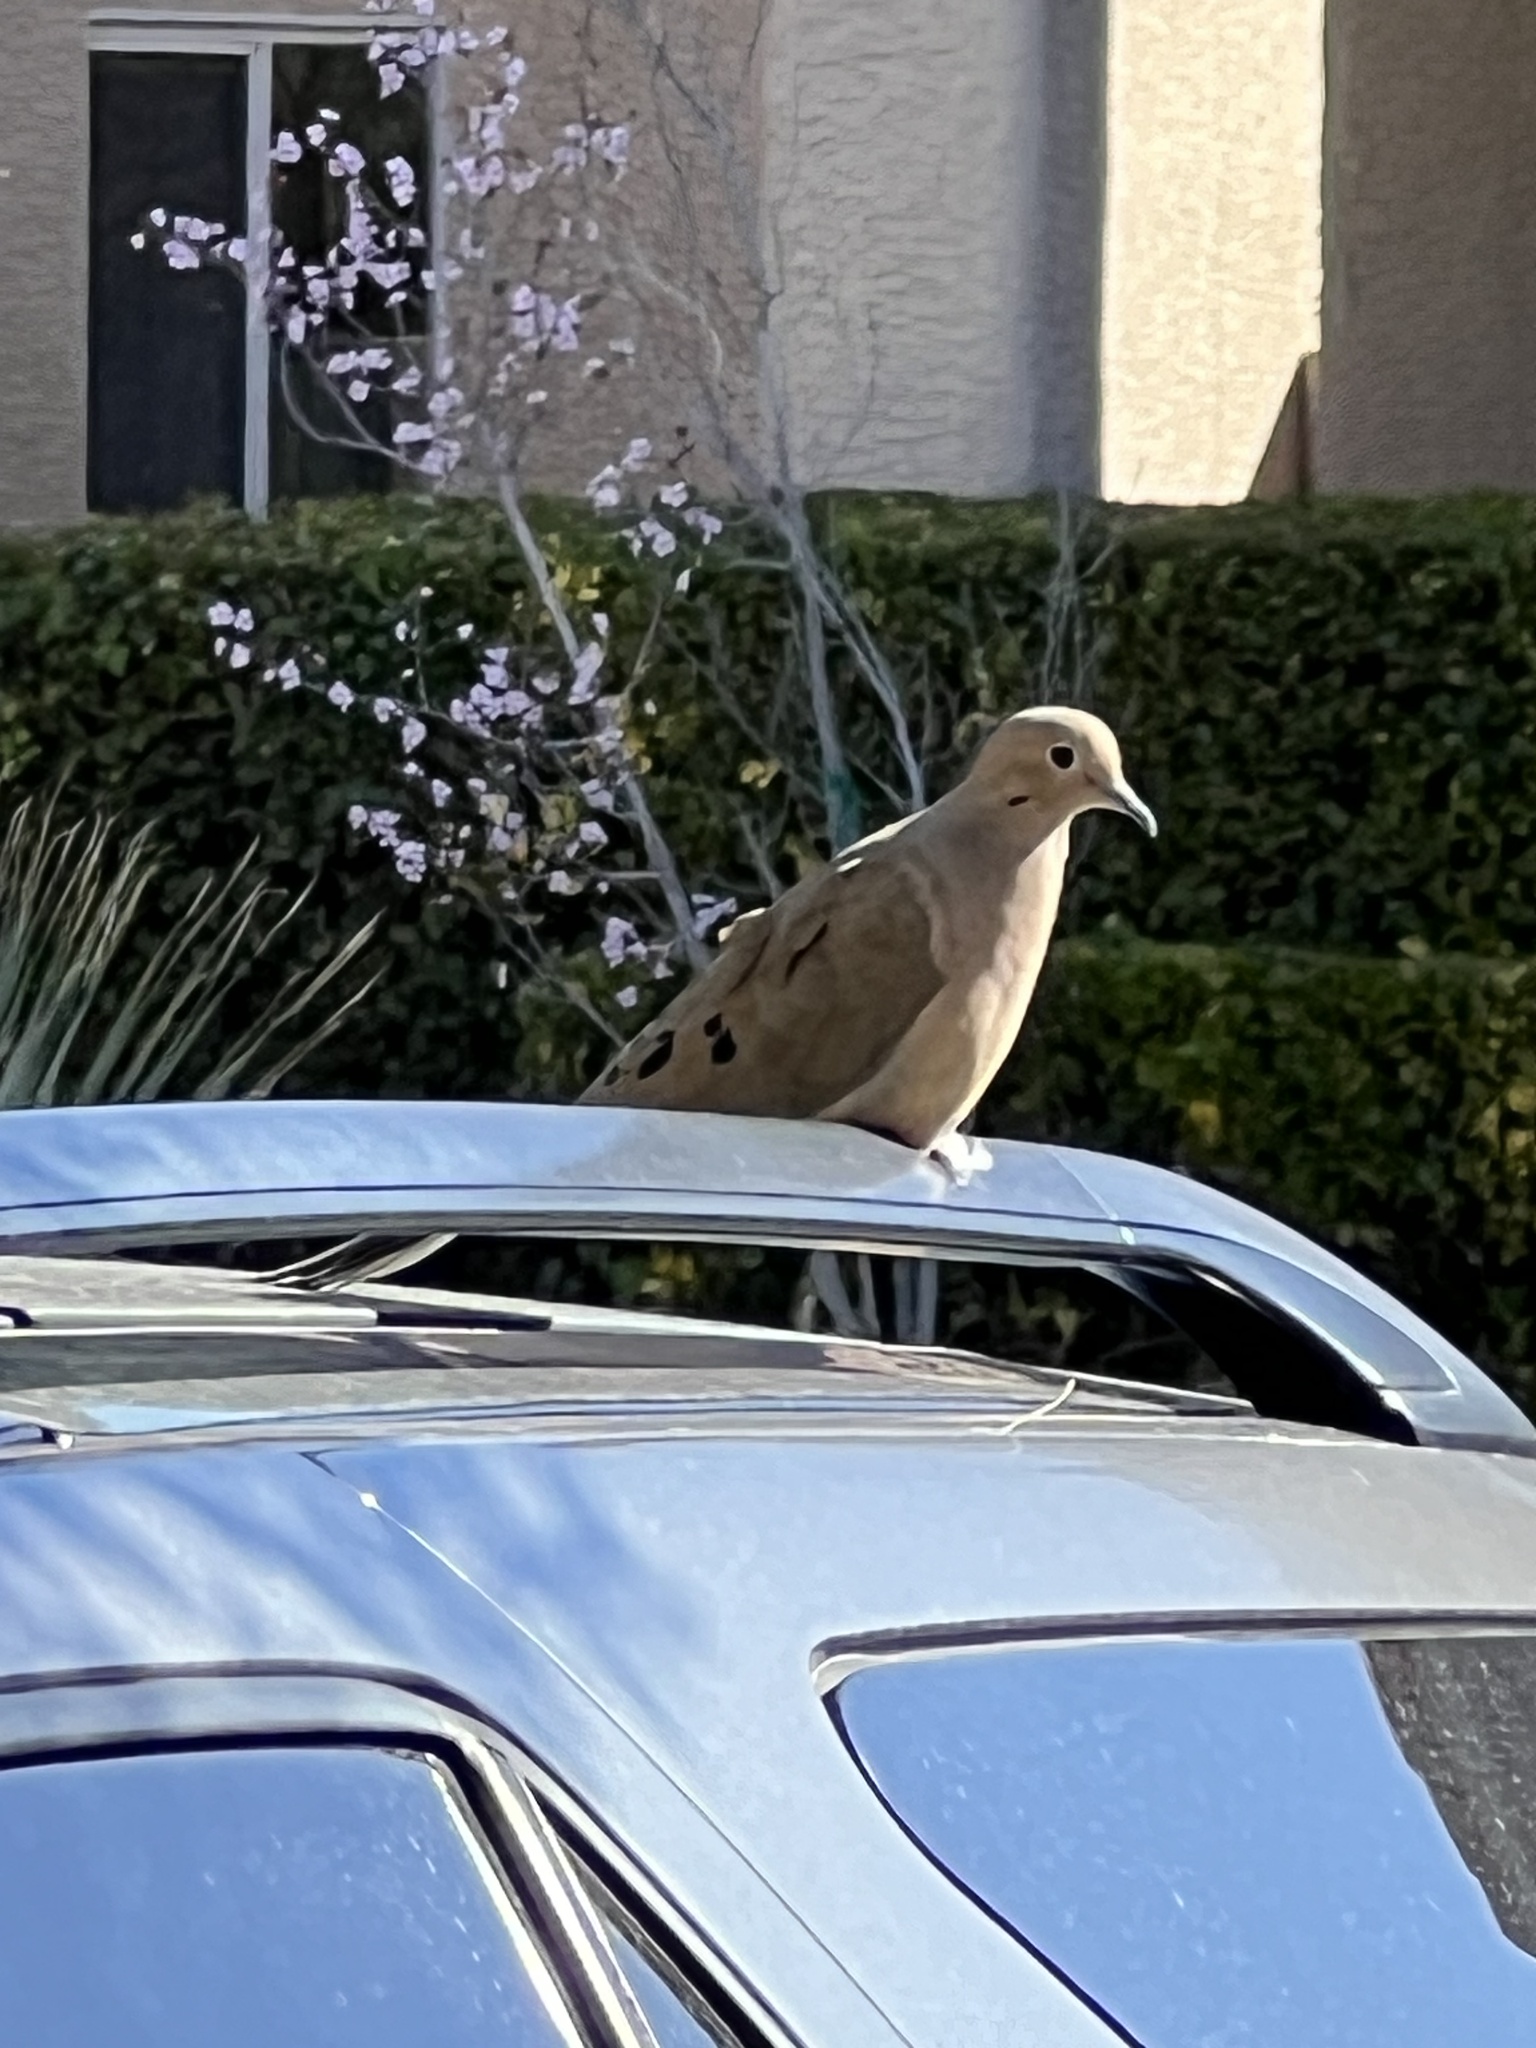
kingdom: Animalia
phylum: Chordata
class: Aves
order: Columbiformes
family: Columbidae
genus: Zenaida
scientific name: Zenaida macroura
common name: Mourning dove
